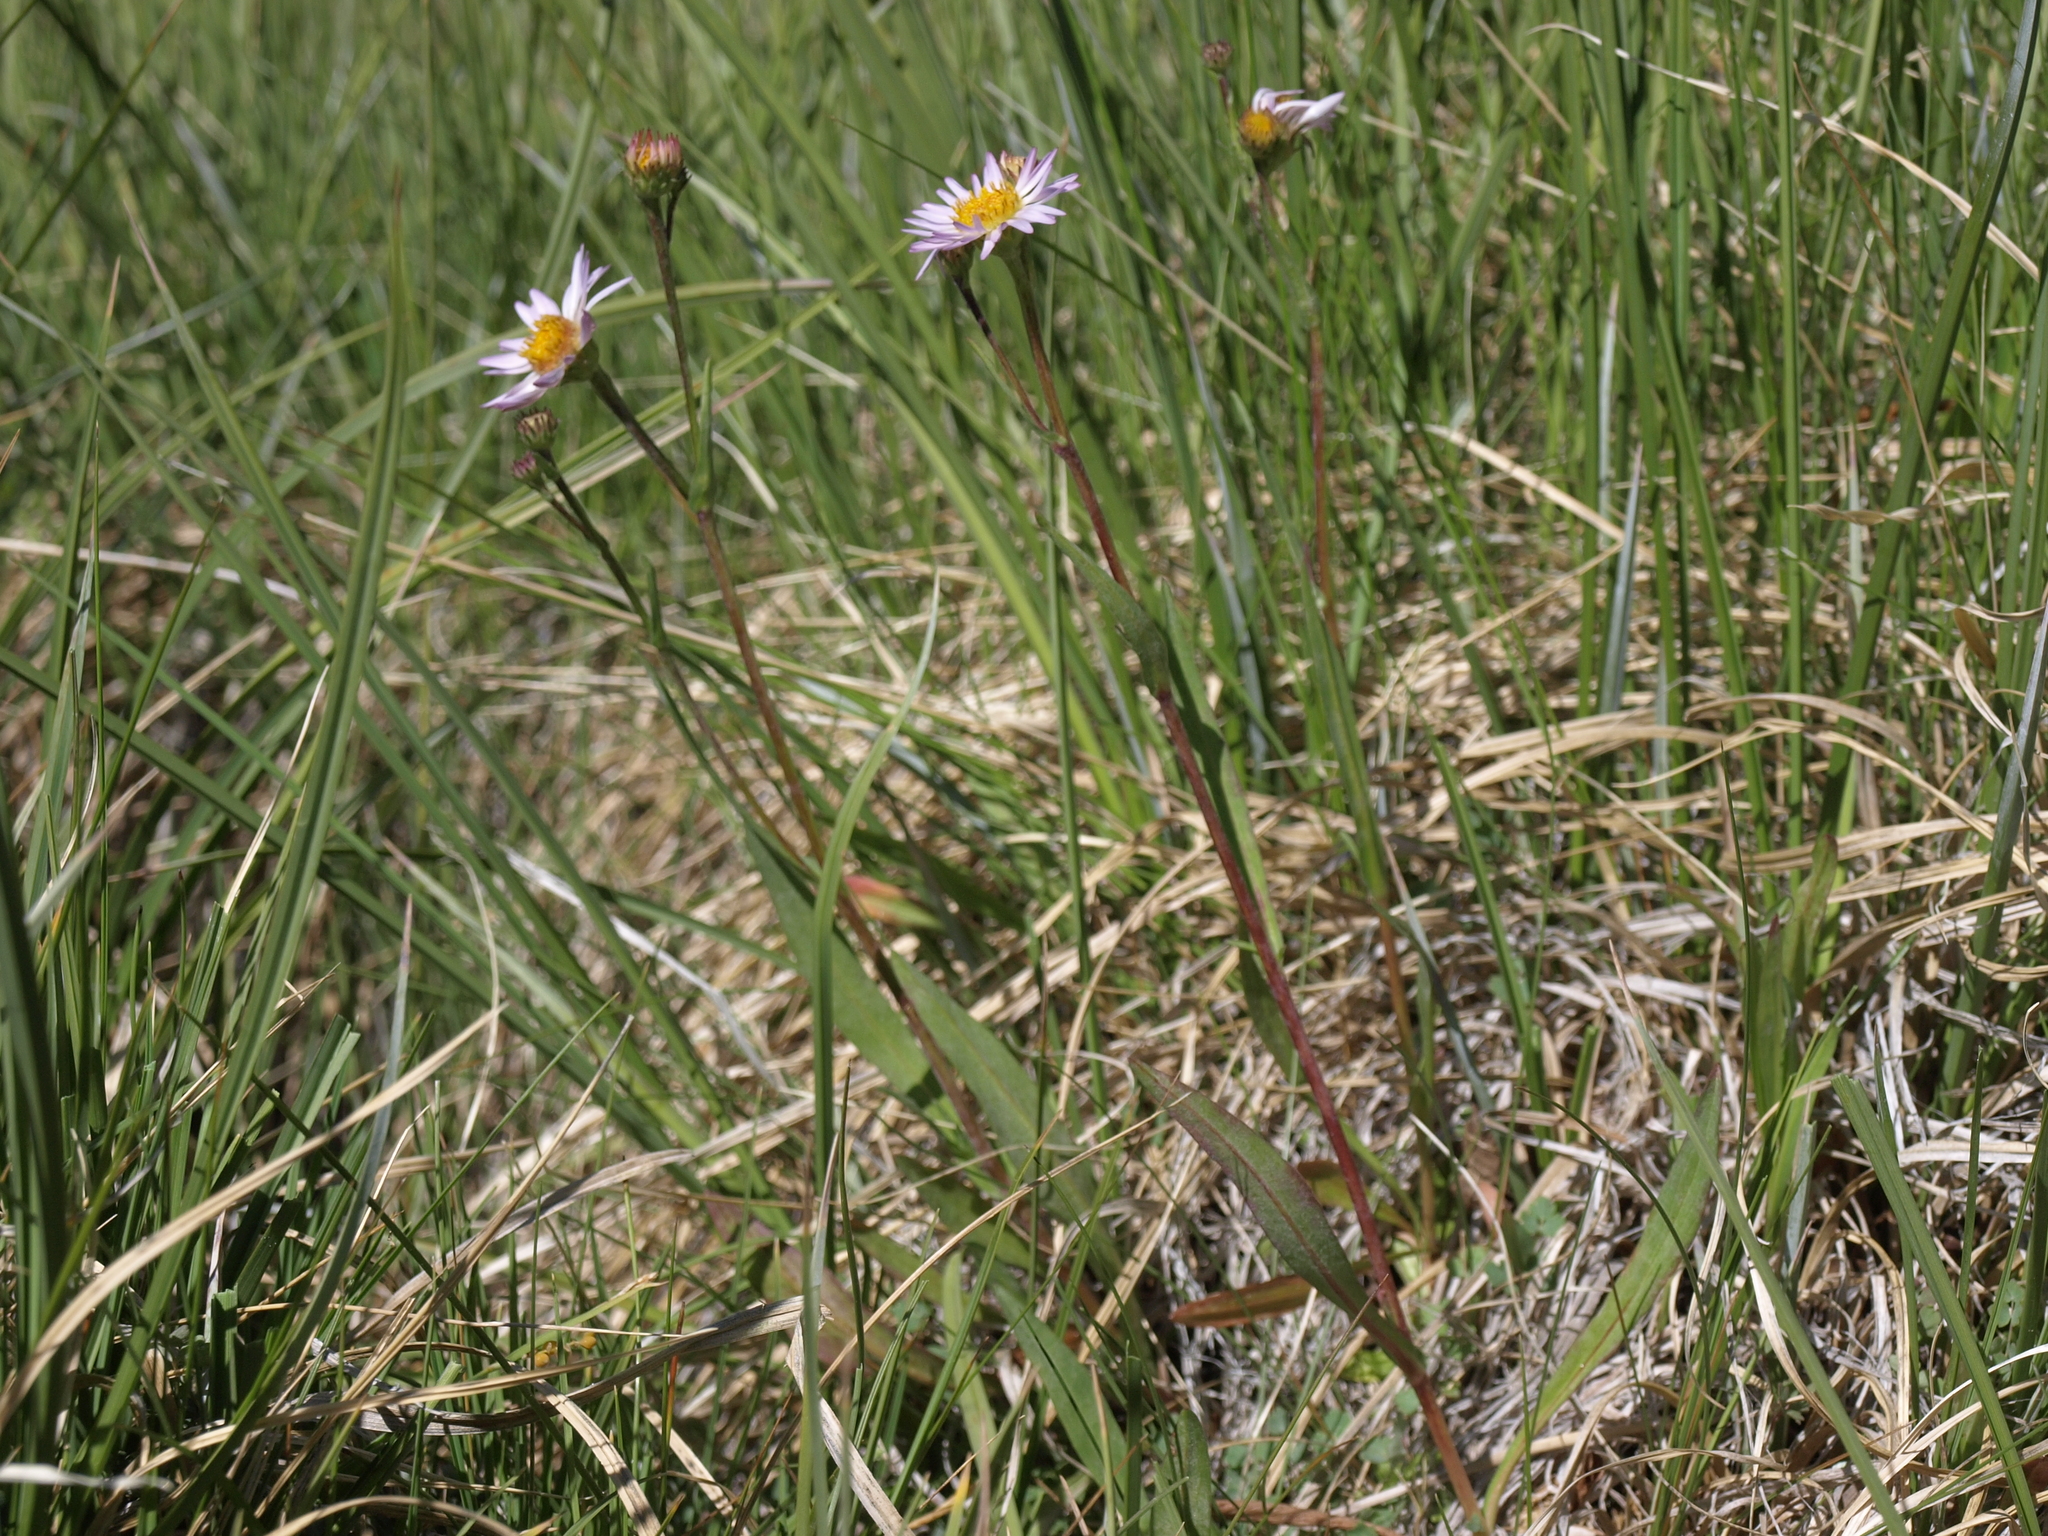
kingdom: Plantae
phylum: Tracheophyta
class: Magnoliopsida
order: Asterales
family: Asteraceae
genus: Symphyotrichum
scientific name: Symphyotrichum spathulatum
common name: Western mountain aster
